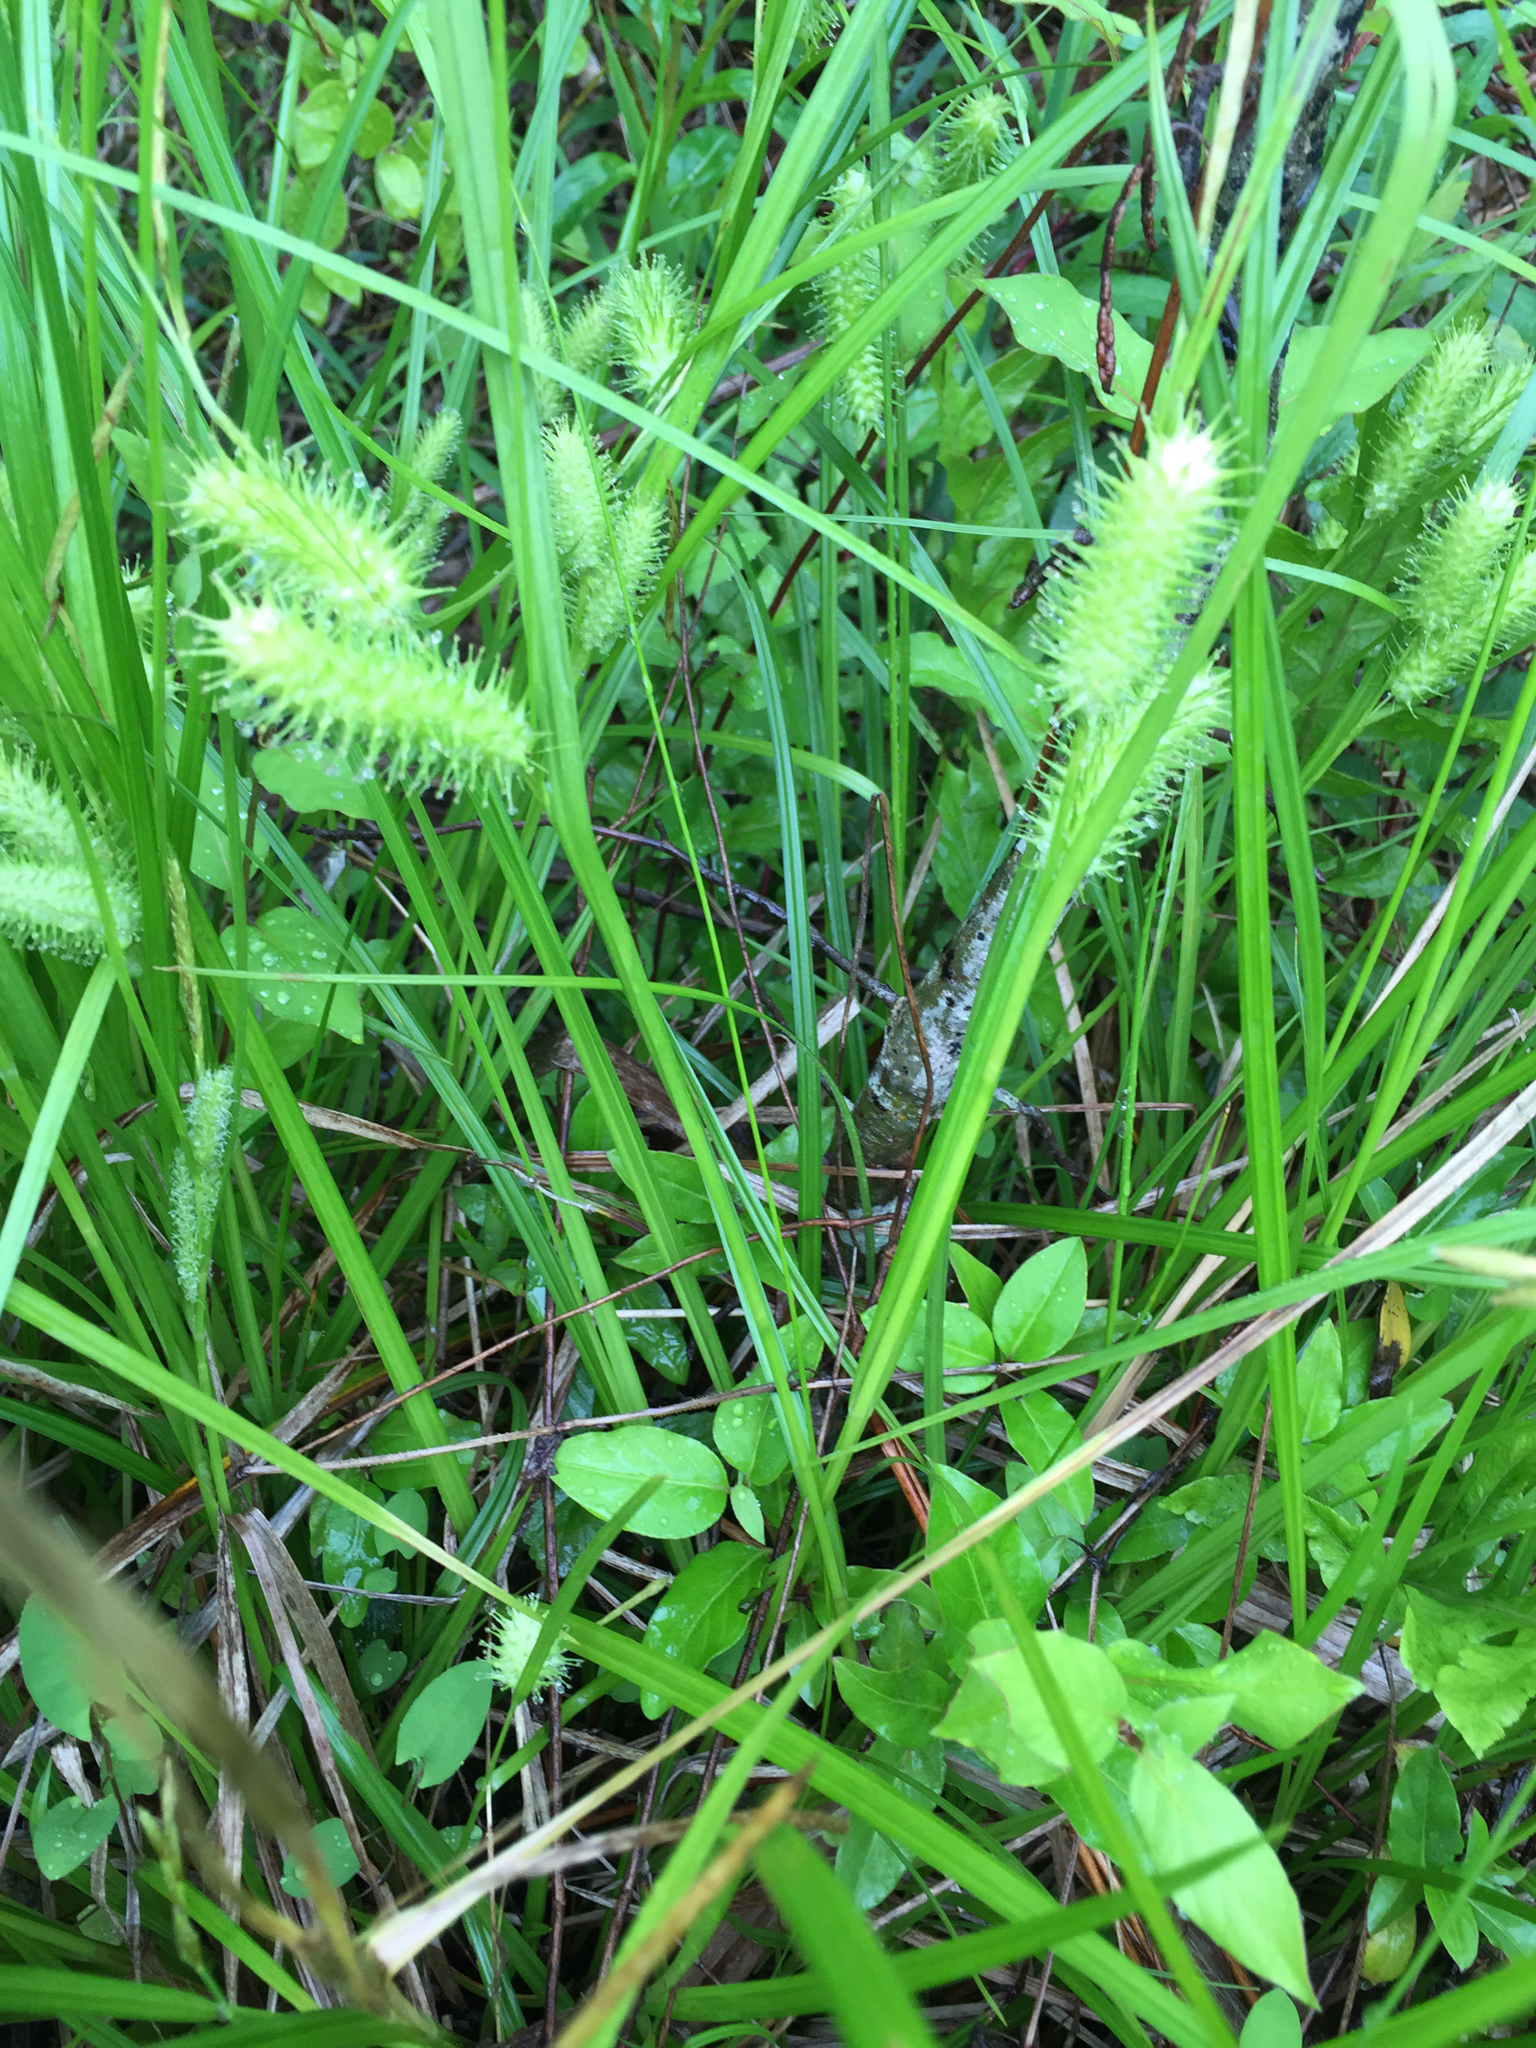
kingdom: Plantae
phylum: Tracheophyta
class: Liliopsida
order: Poales
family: Cyperaceae
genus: Carex
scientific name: Carex lurida
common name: Sallow sedge
